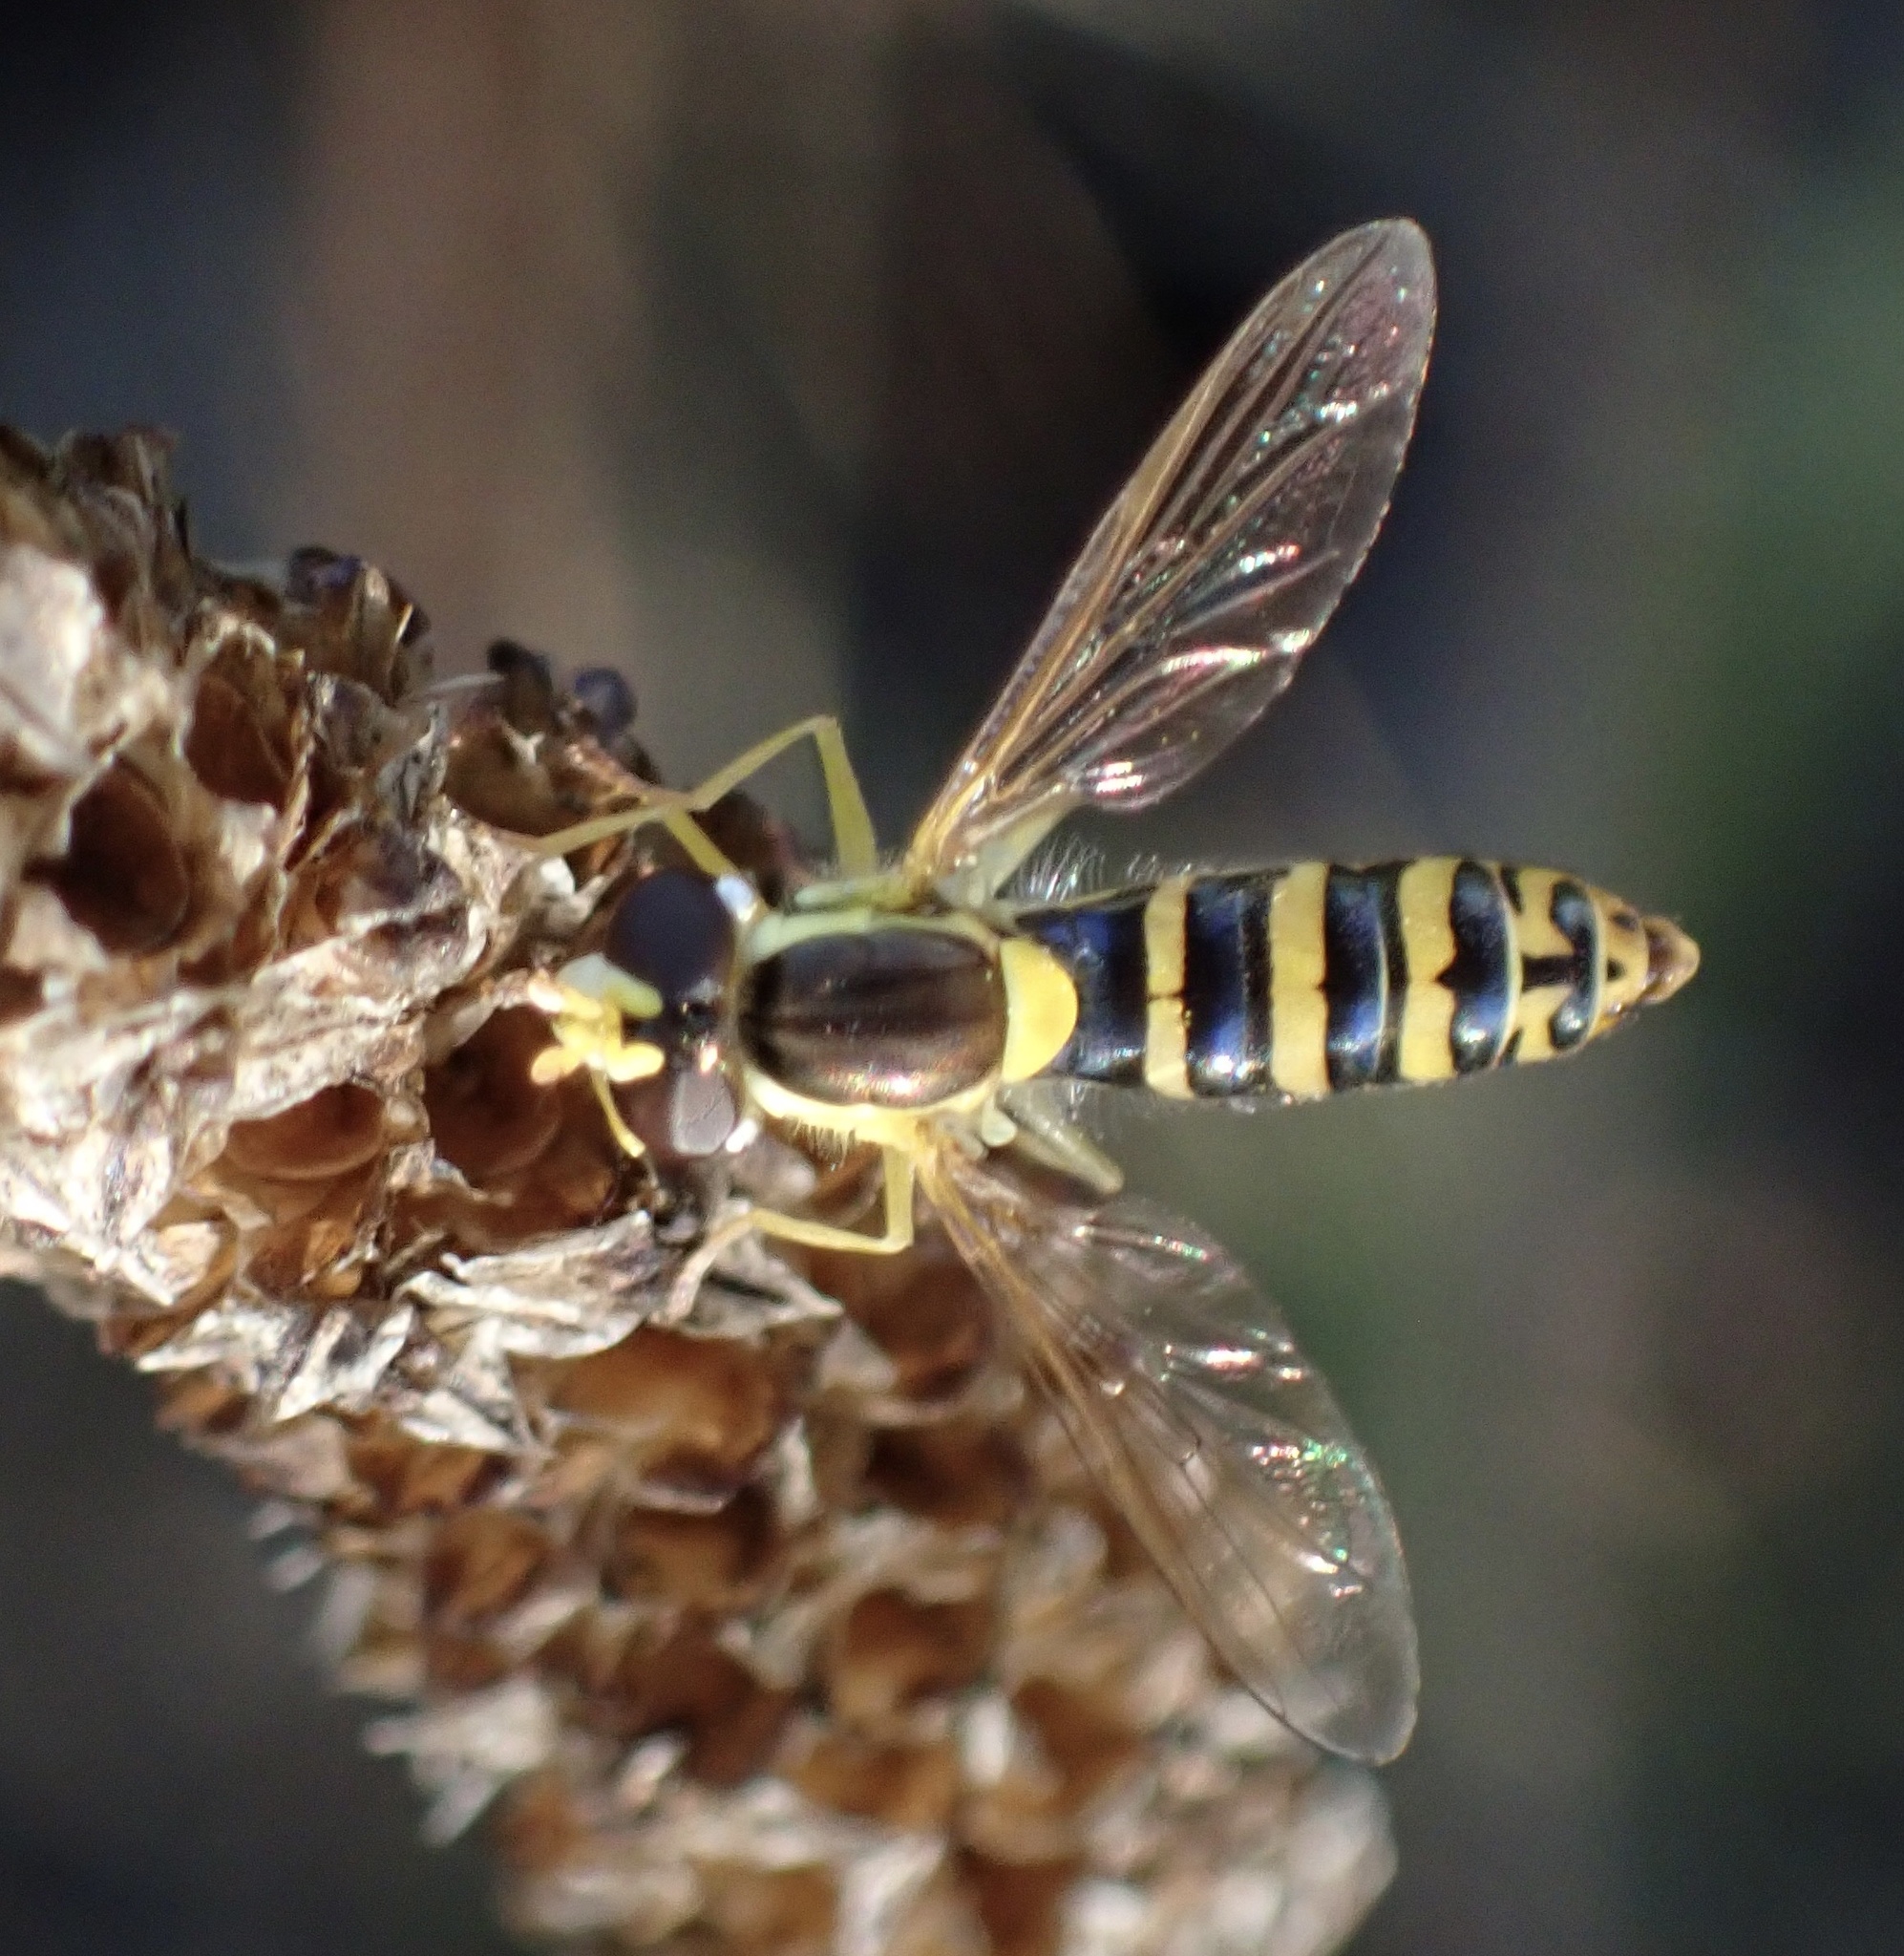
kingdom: Animalia
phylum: Arthropoda
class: Insecta
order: Diptera
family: Syrphidae
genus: Sphaerophoria
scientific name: Sphaerophoria
